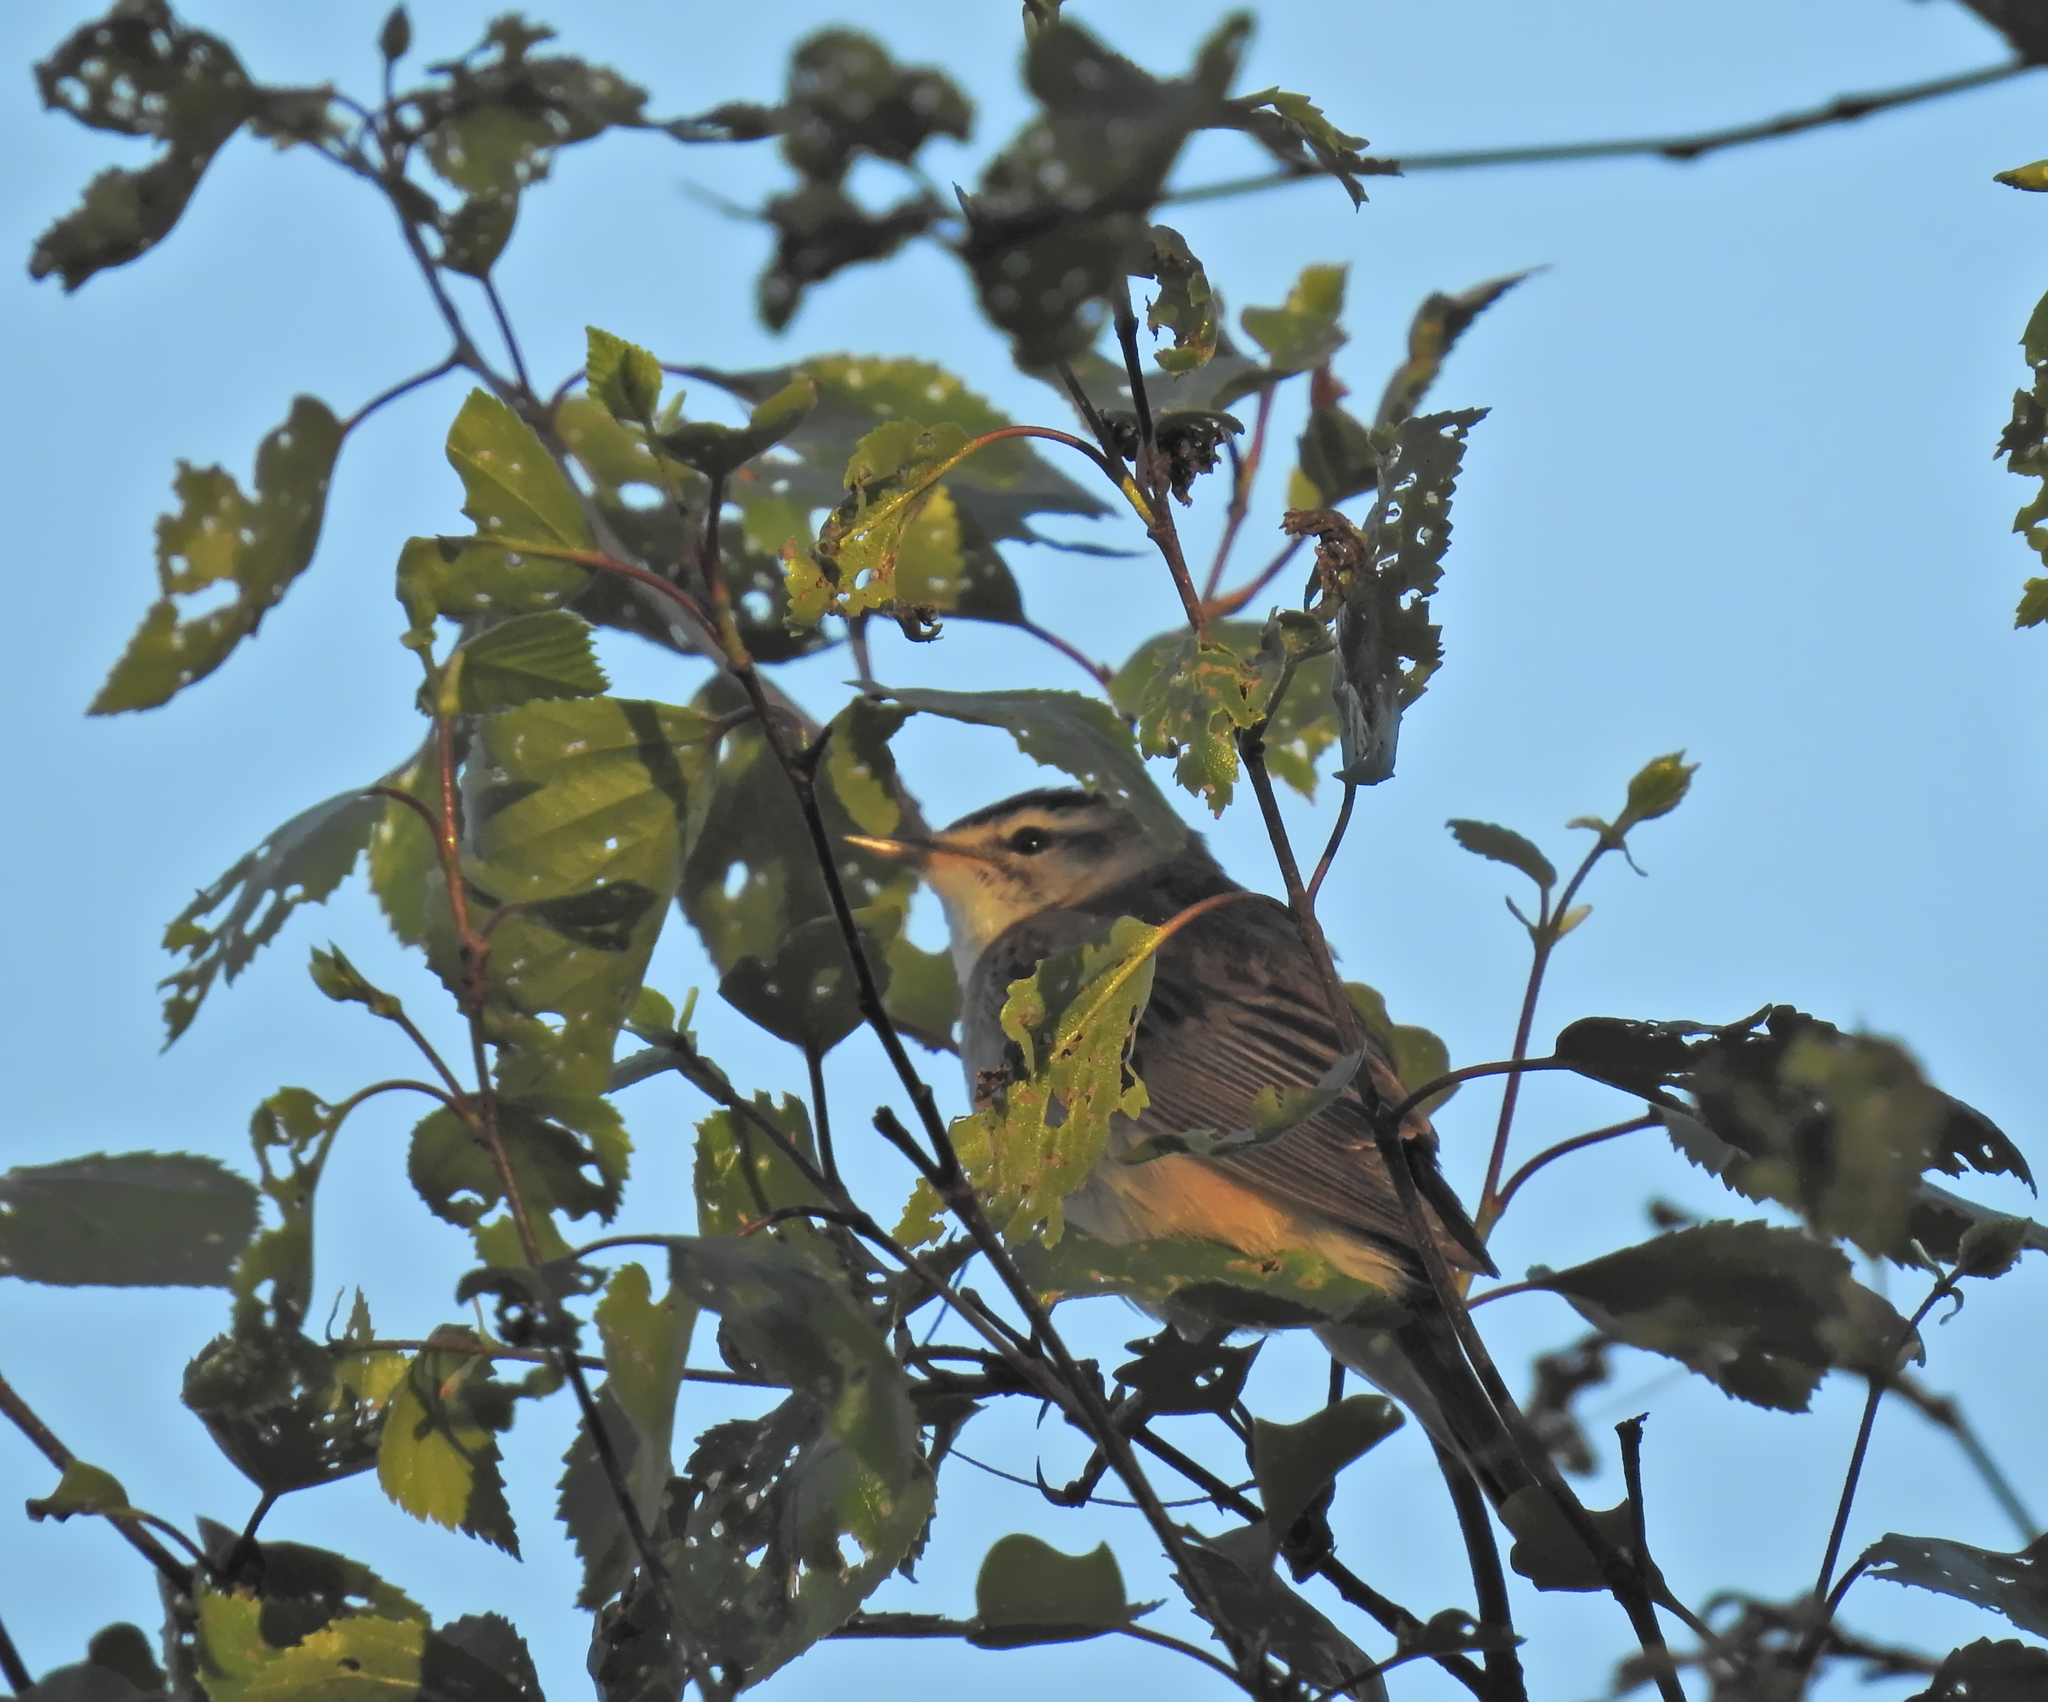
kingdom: Animalia
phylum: Chordata
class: Aves
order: Passeriformes
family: Acrocephalidae
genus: Acrocephalus
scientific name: Acrocephalus schoenobaenus
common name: Sedge warbler
